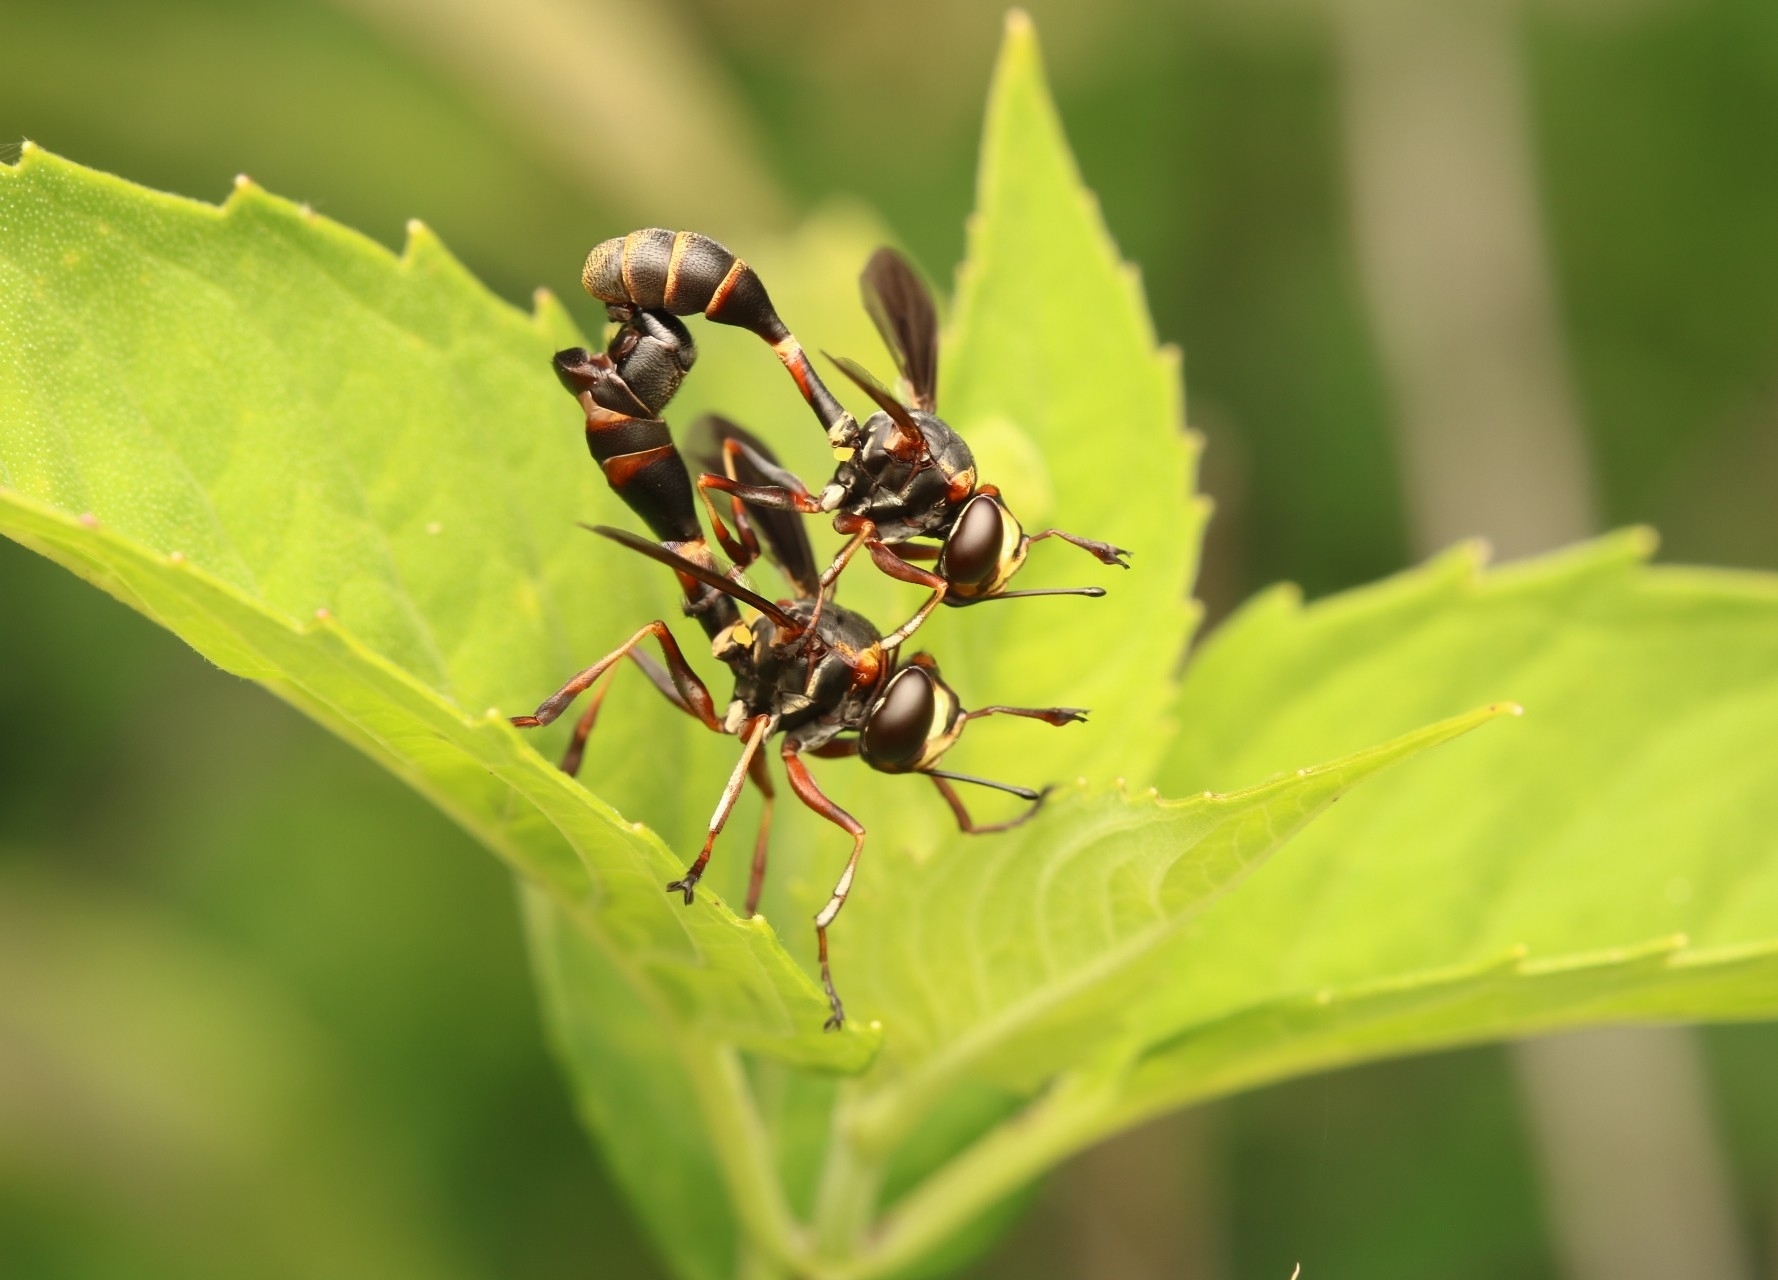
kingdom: Animalia
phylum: Arthropoda
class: Insecta
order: Diptera
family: Conopidae
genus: Physocephala
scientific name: Physocephala sagittaria
